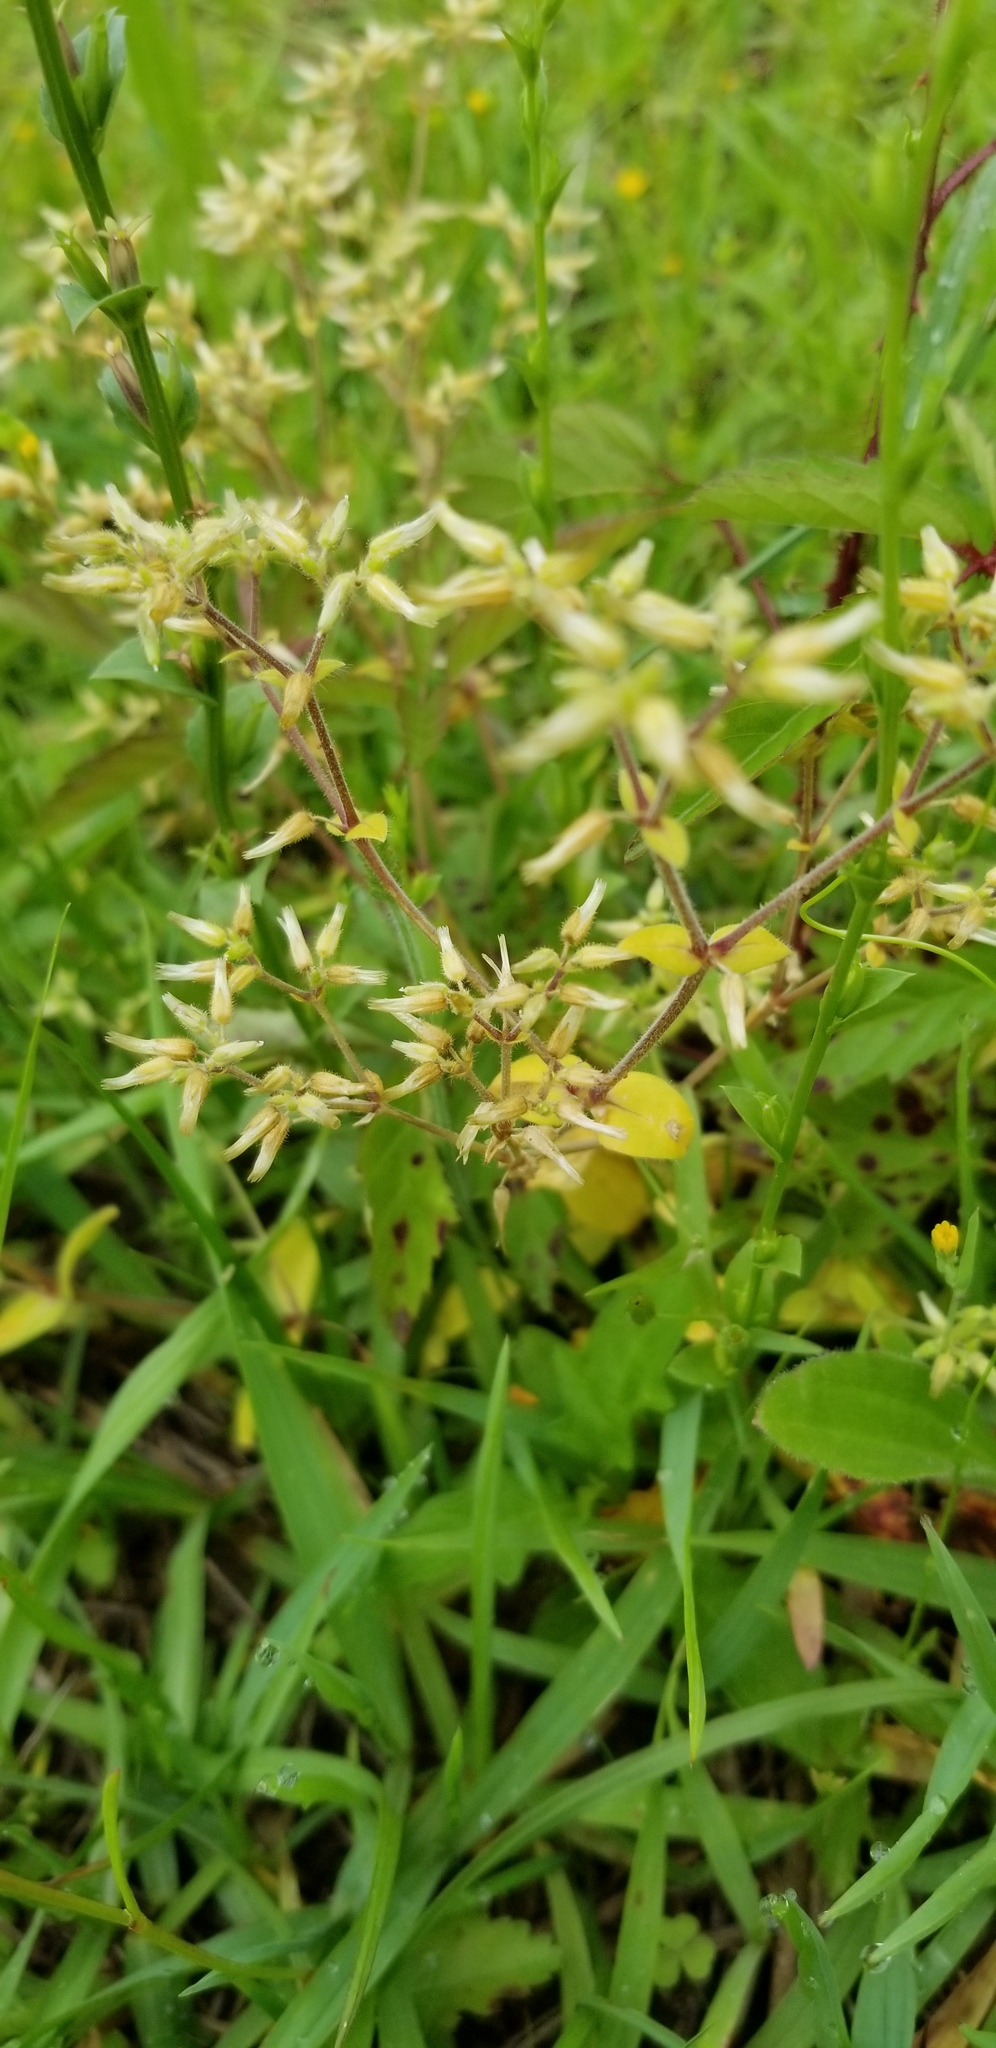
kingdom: Plantae
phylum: Tracheophyta
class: Magnoliopsida
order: Caryophyllales
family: Caryophyllaceae
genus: Cerastium
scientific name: Cerastium glomeratum
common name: Sticky chickweed
